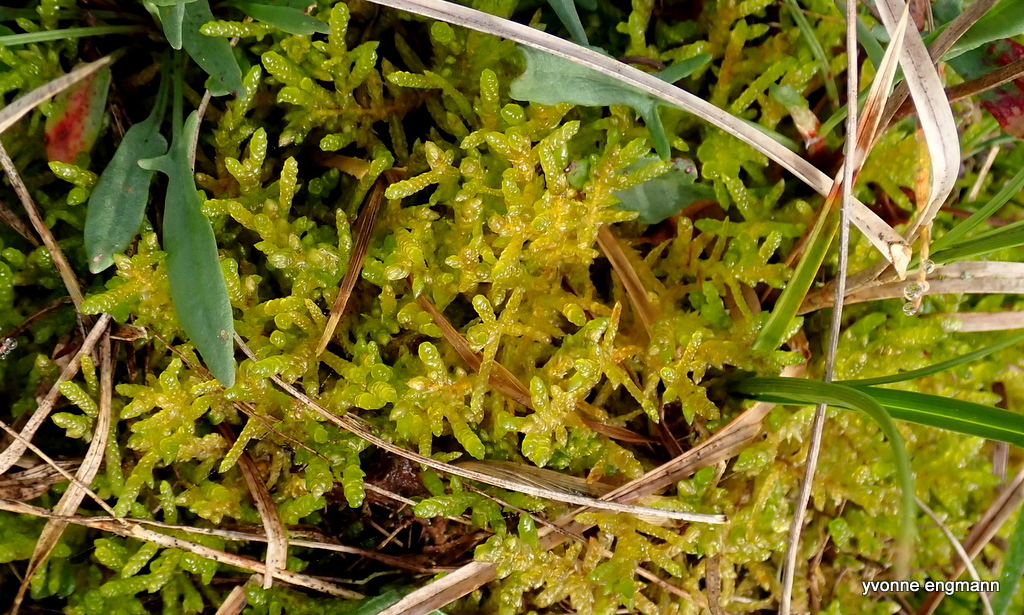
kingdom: Plantae
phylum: Bryophyta
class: Bryopsida
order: Hypnales
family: Brachytheciaceae
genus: Pseudoscleropodium
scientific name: Pseudoscleropodium purum
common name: Neat feather-moss
